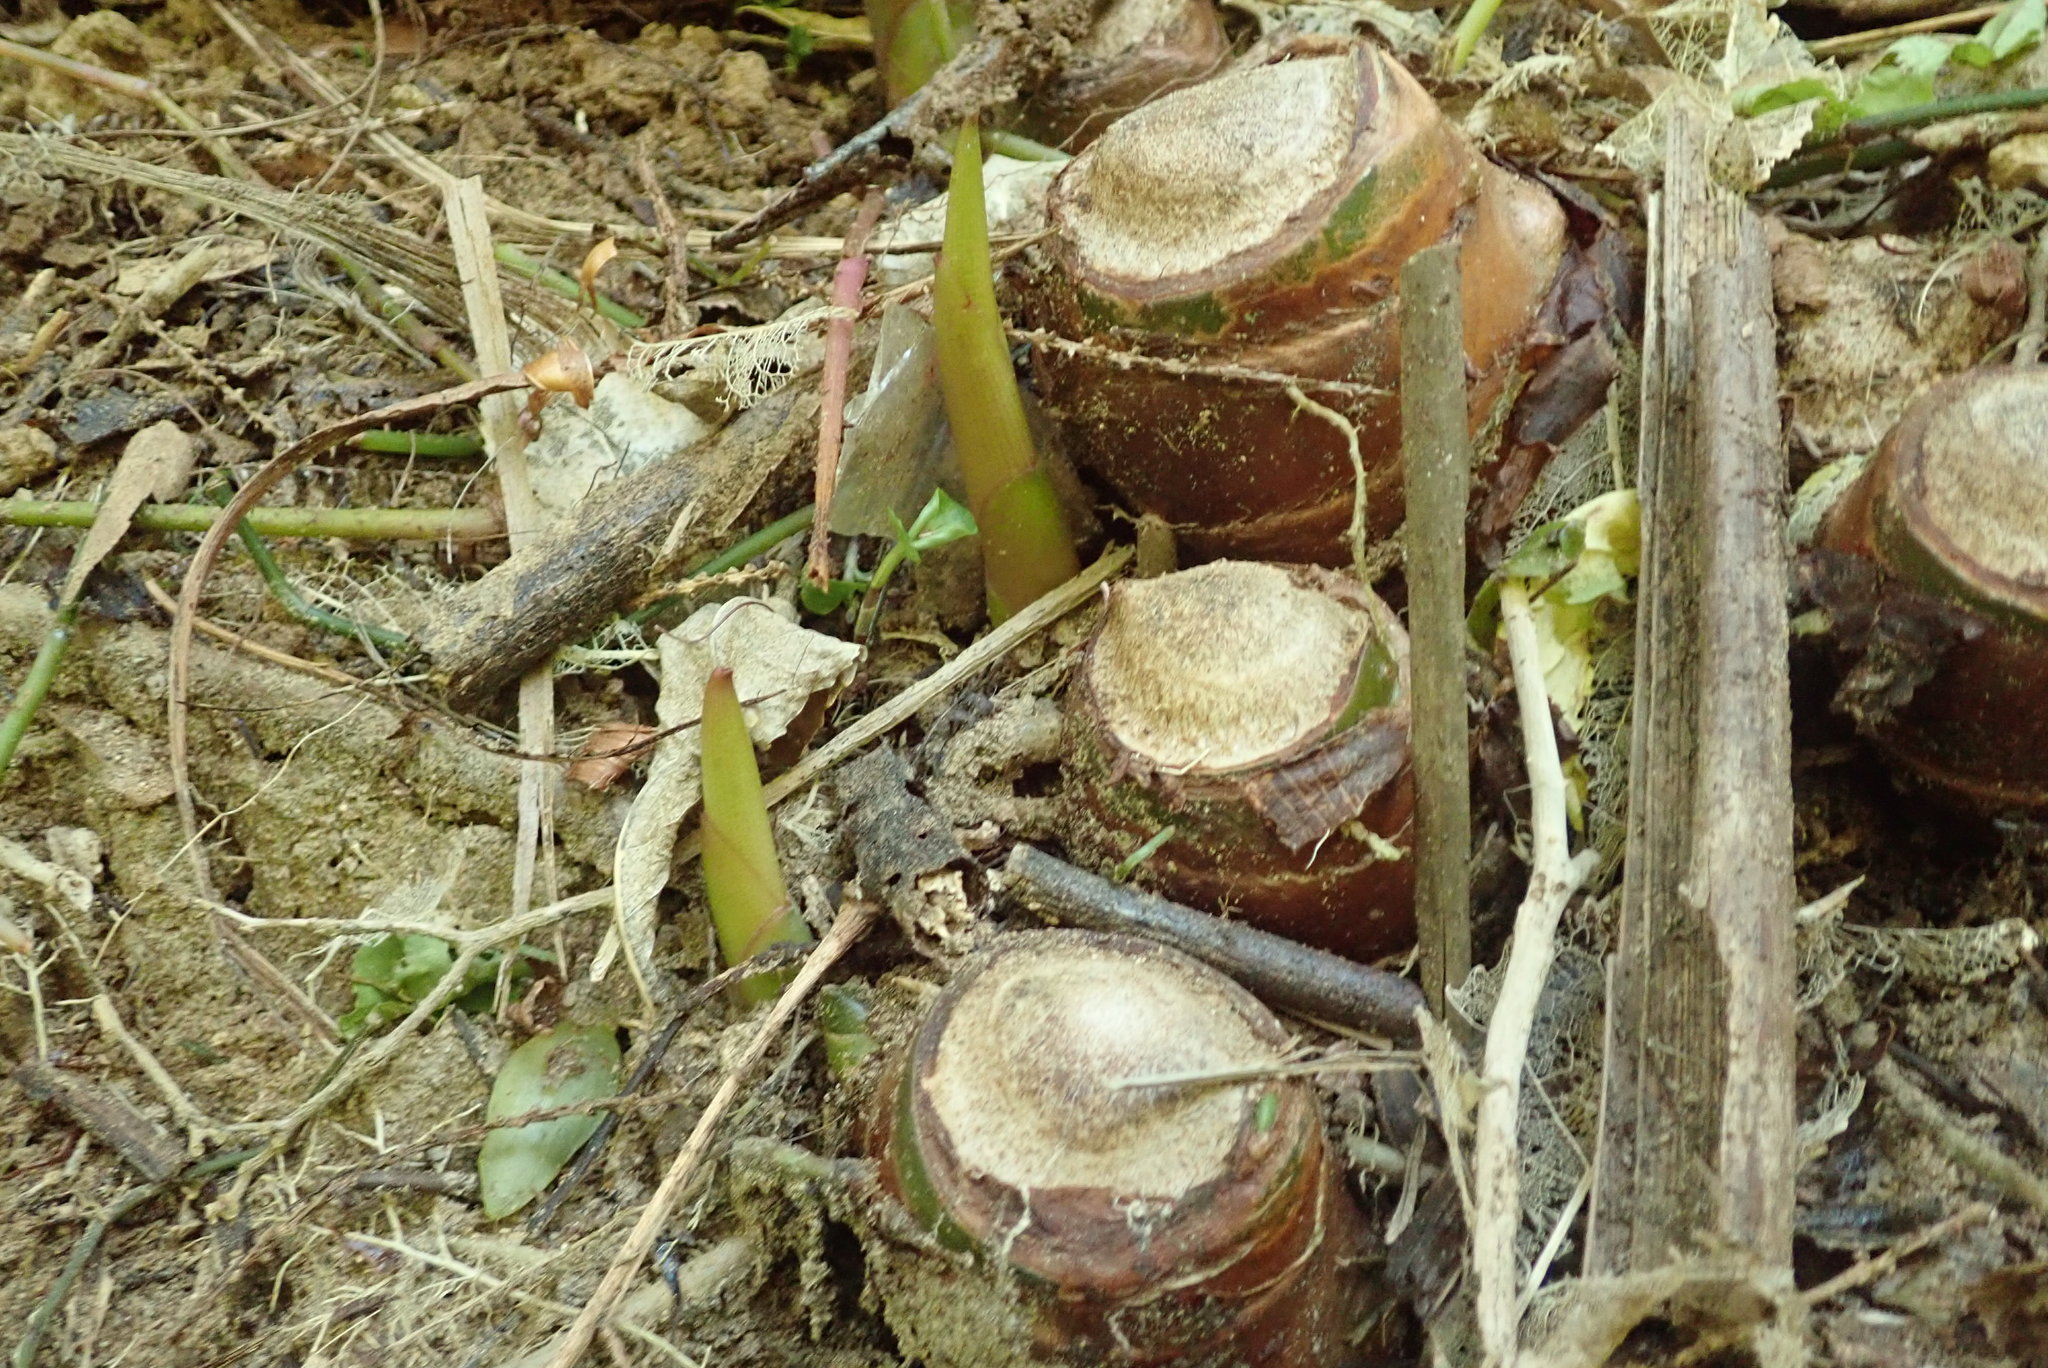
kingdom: Plantae
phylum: Tracheophyta
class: Liliopsida
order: Zingiberales
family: Zingiberaceae
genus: Hedychium
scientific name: Hedychium gardnerianum
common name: Himalayan ginger
